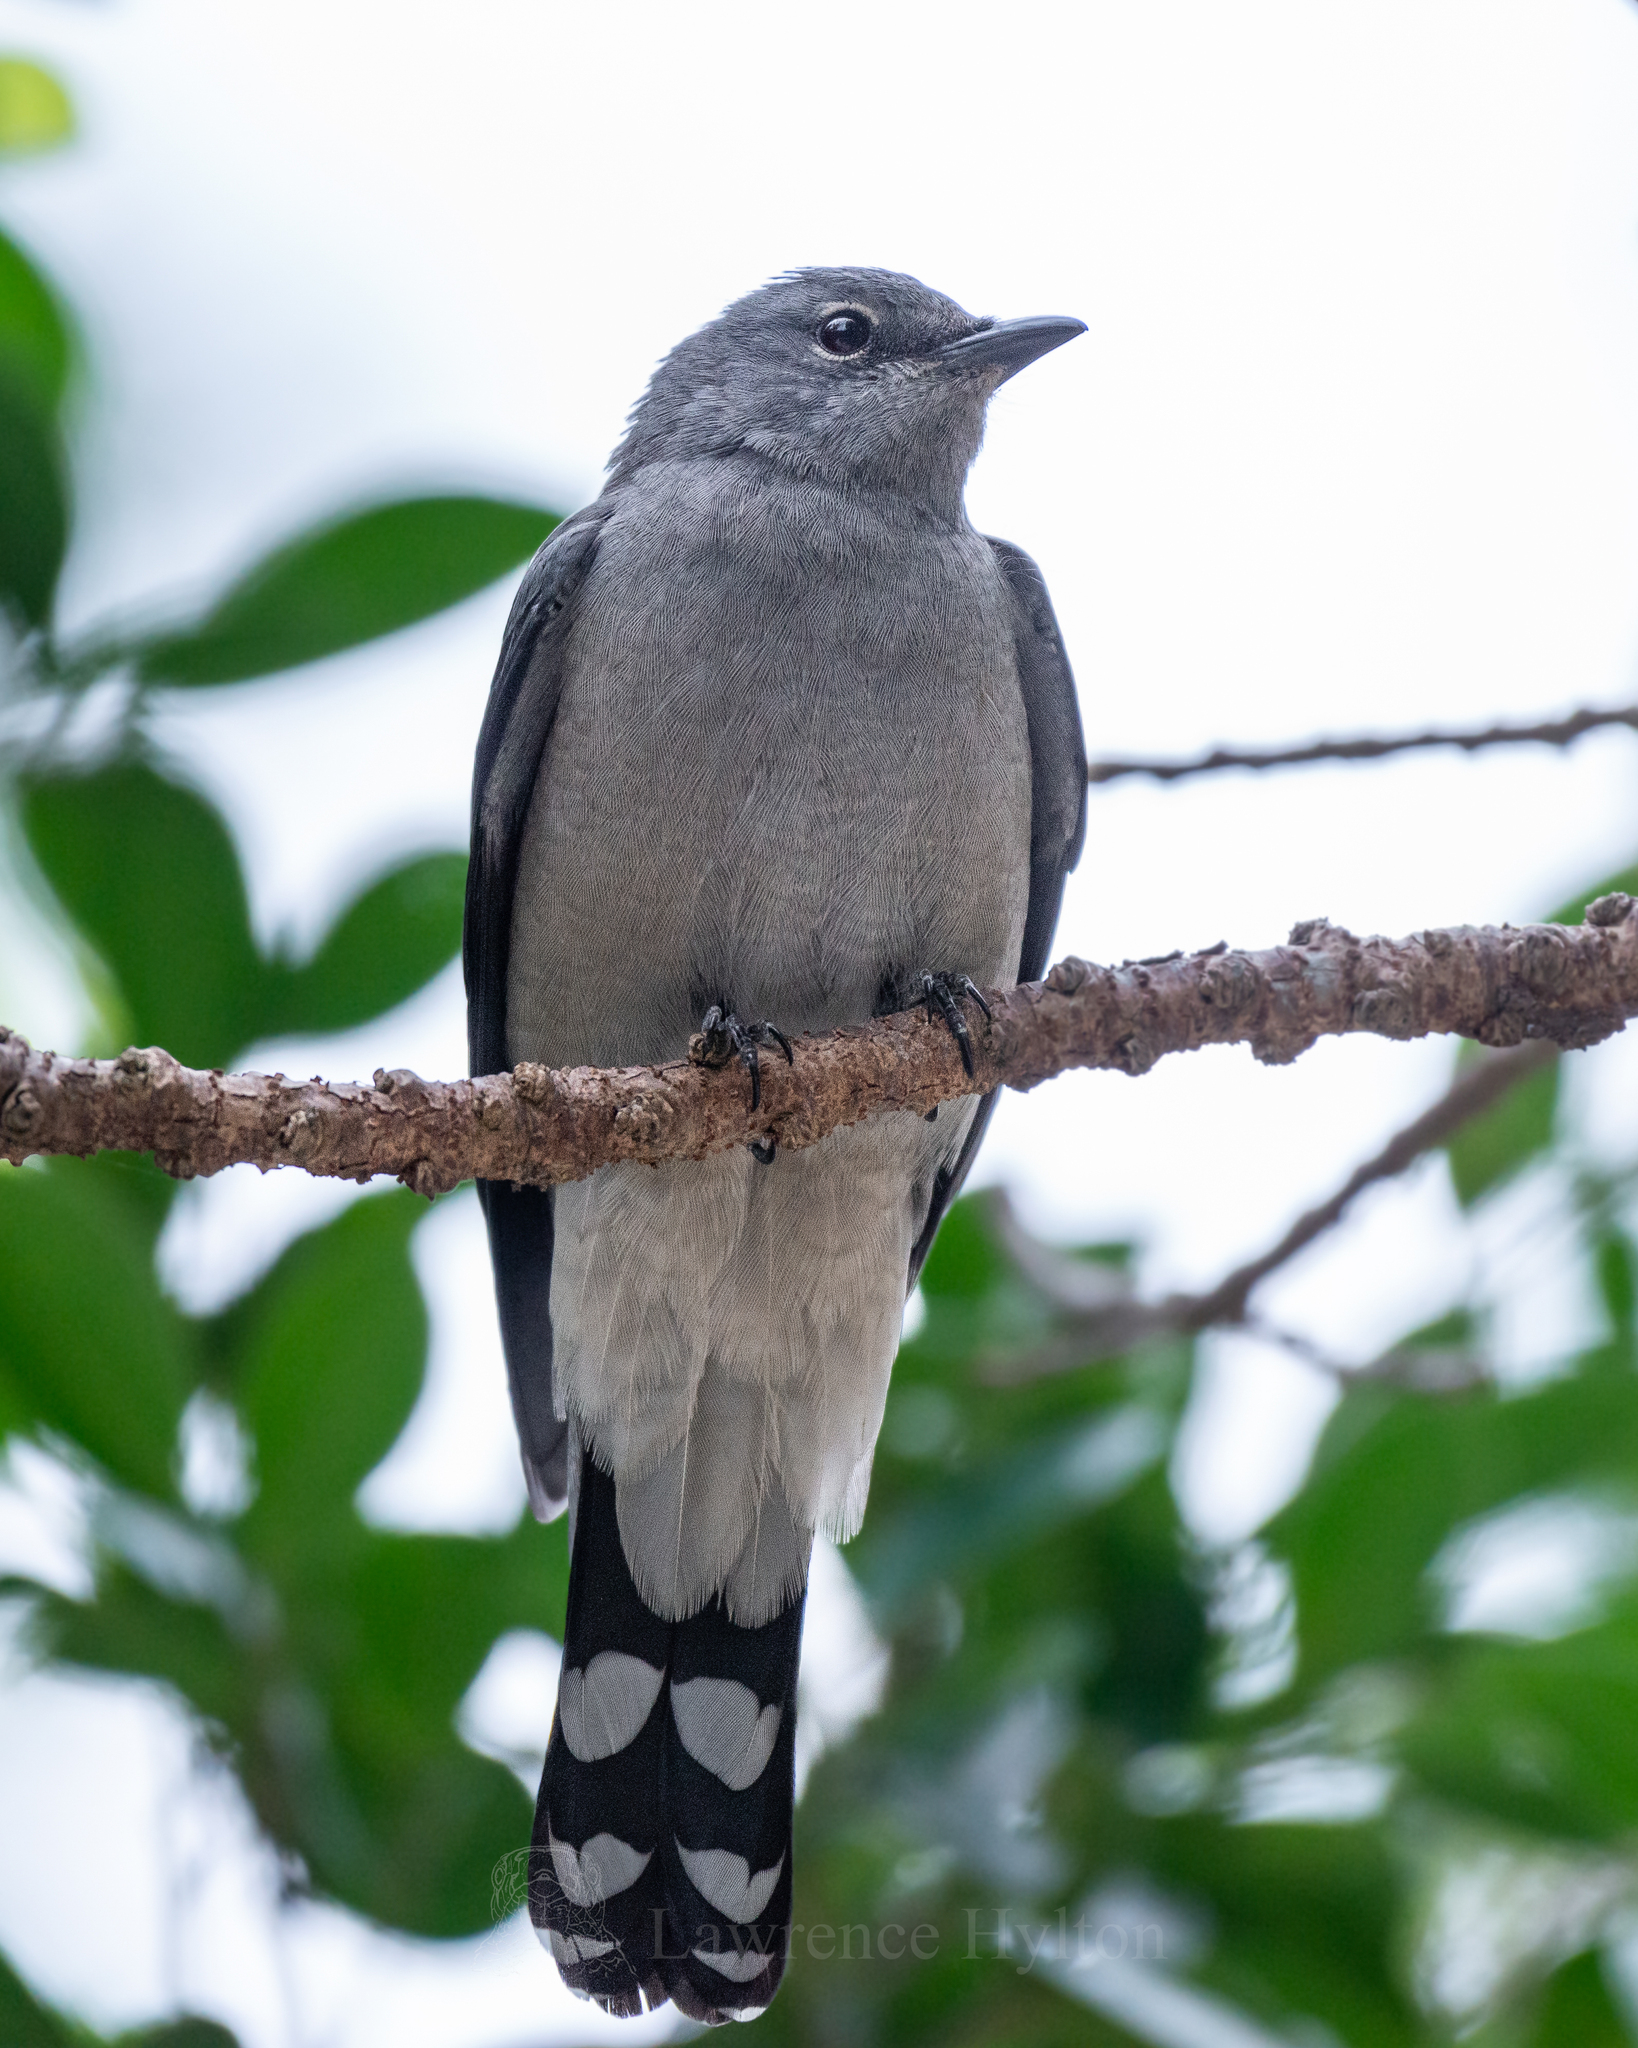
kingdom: Animalia
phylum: Chordata
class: Aves
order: Passeriformes
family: Campephagidae
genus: Coracina
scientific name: Coracina melaschistos
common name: Black-winged cuckooshrike
